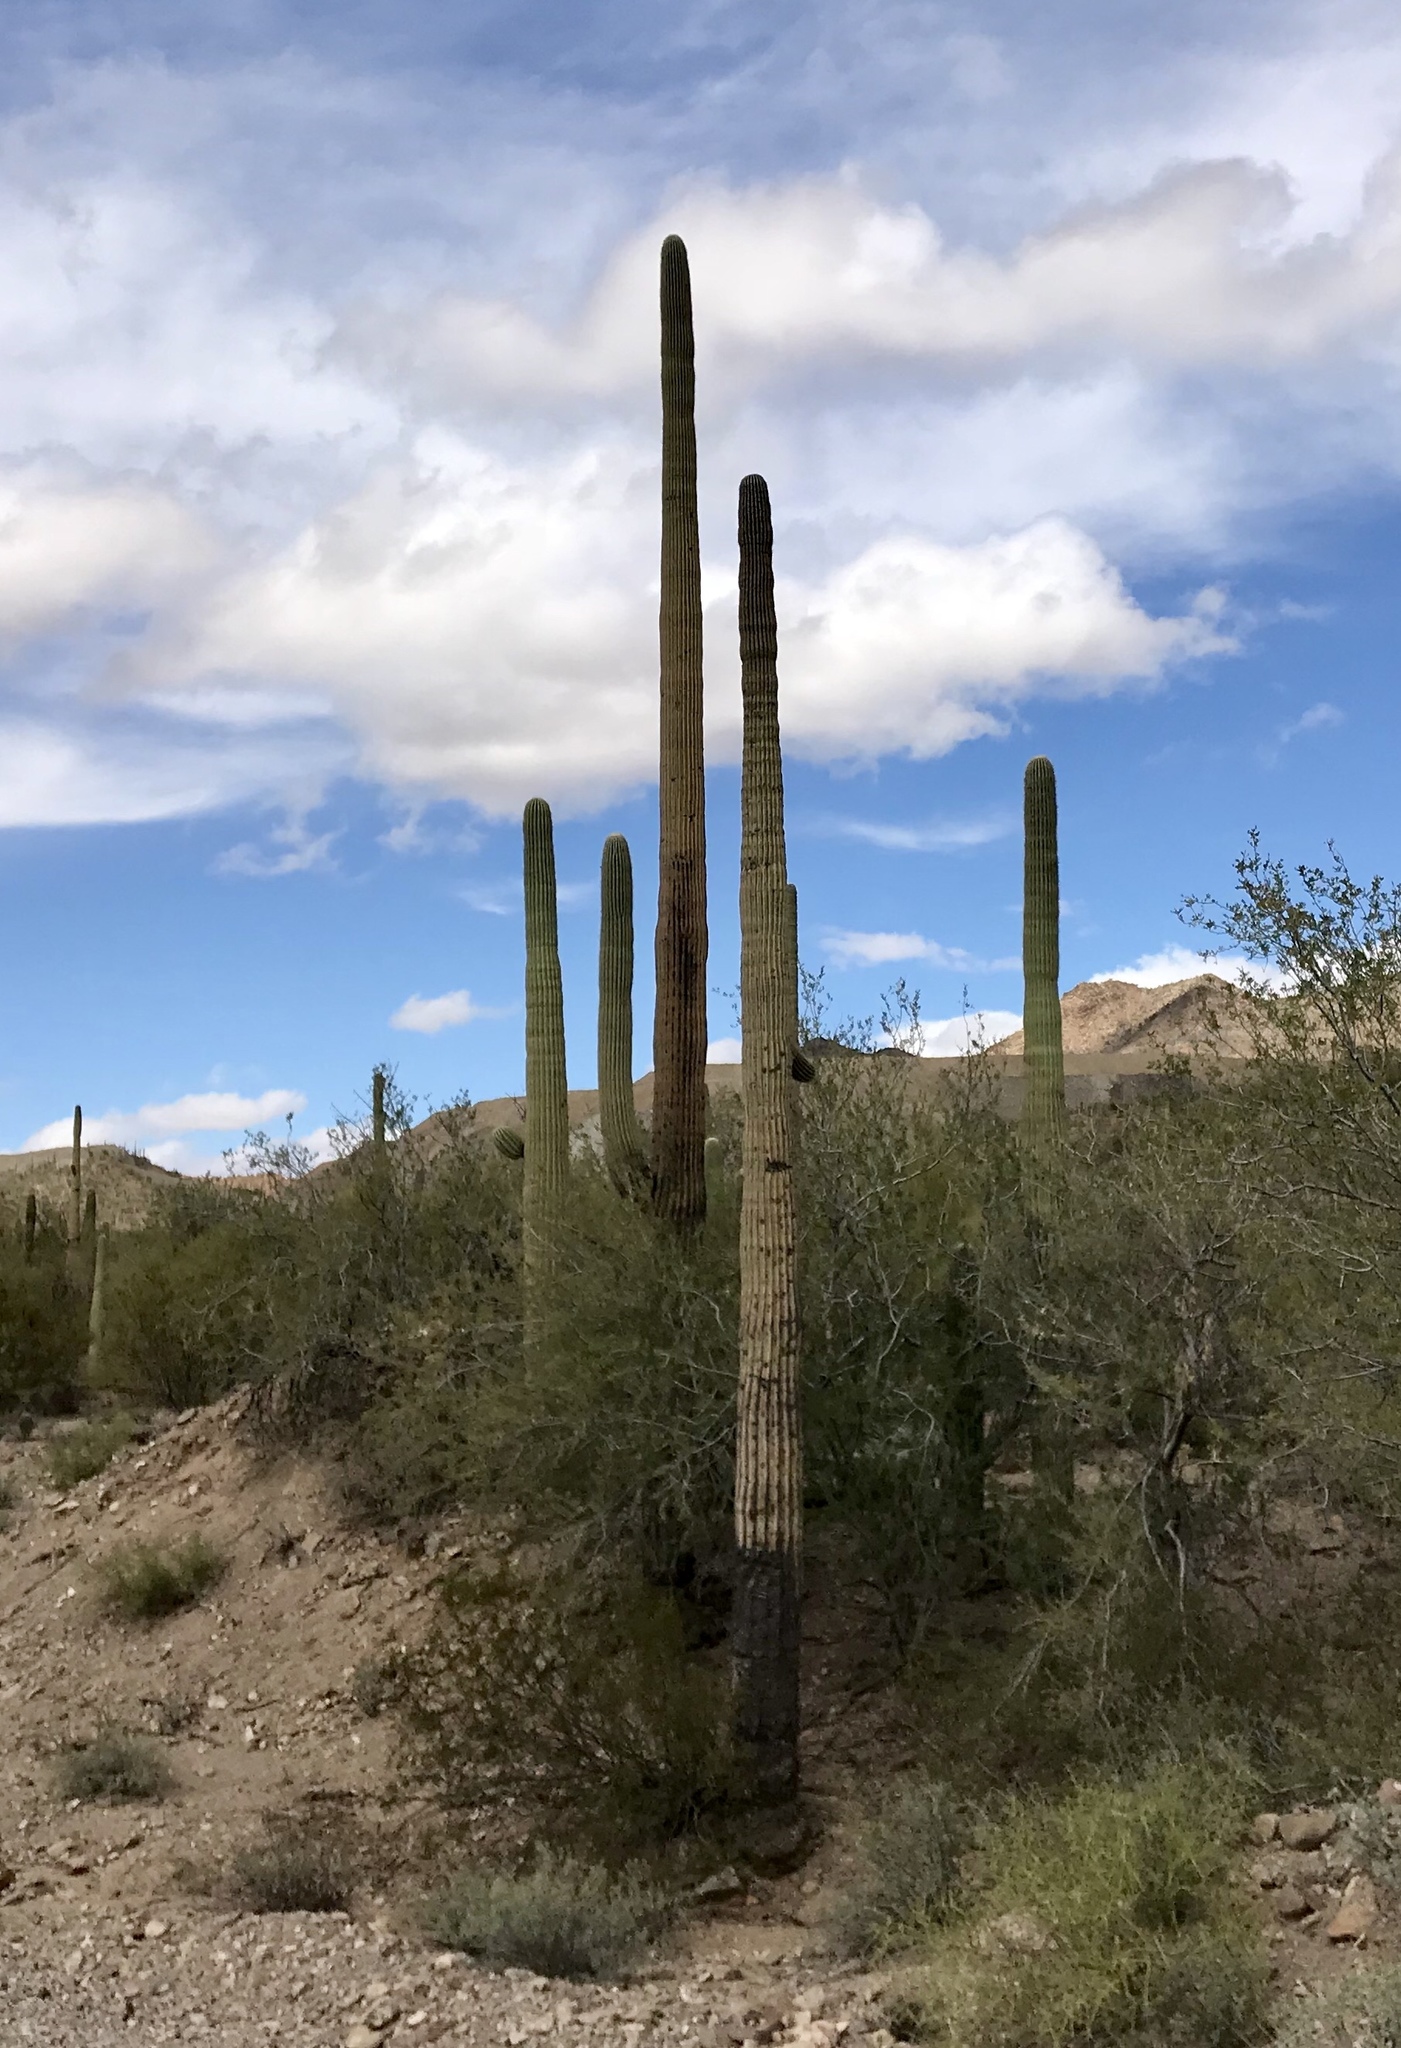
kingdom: Plantae
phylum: Tracheophyta
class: Magnoliopsida
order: Caryophyllales
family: Cactaceae
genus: Carnegiea
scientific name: Carnegiea gigantea
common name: Saguaro
